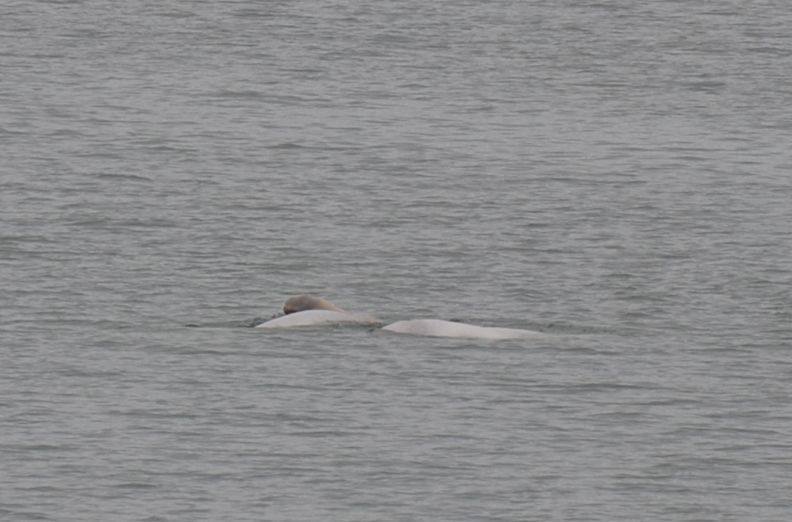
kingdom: Animalia
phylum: Chordata
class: Mammalia
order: Cetacea
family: Monodontidae
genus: Delphinapterus
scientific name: Delphinapterus leucas
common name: Beluga
